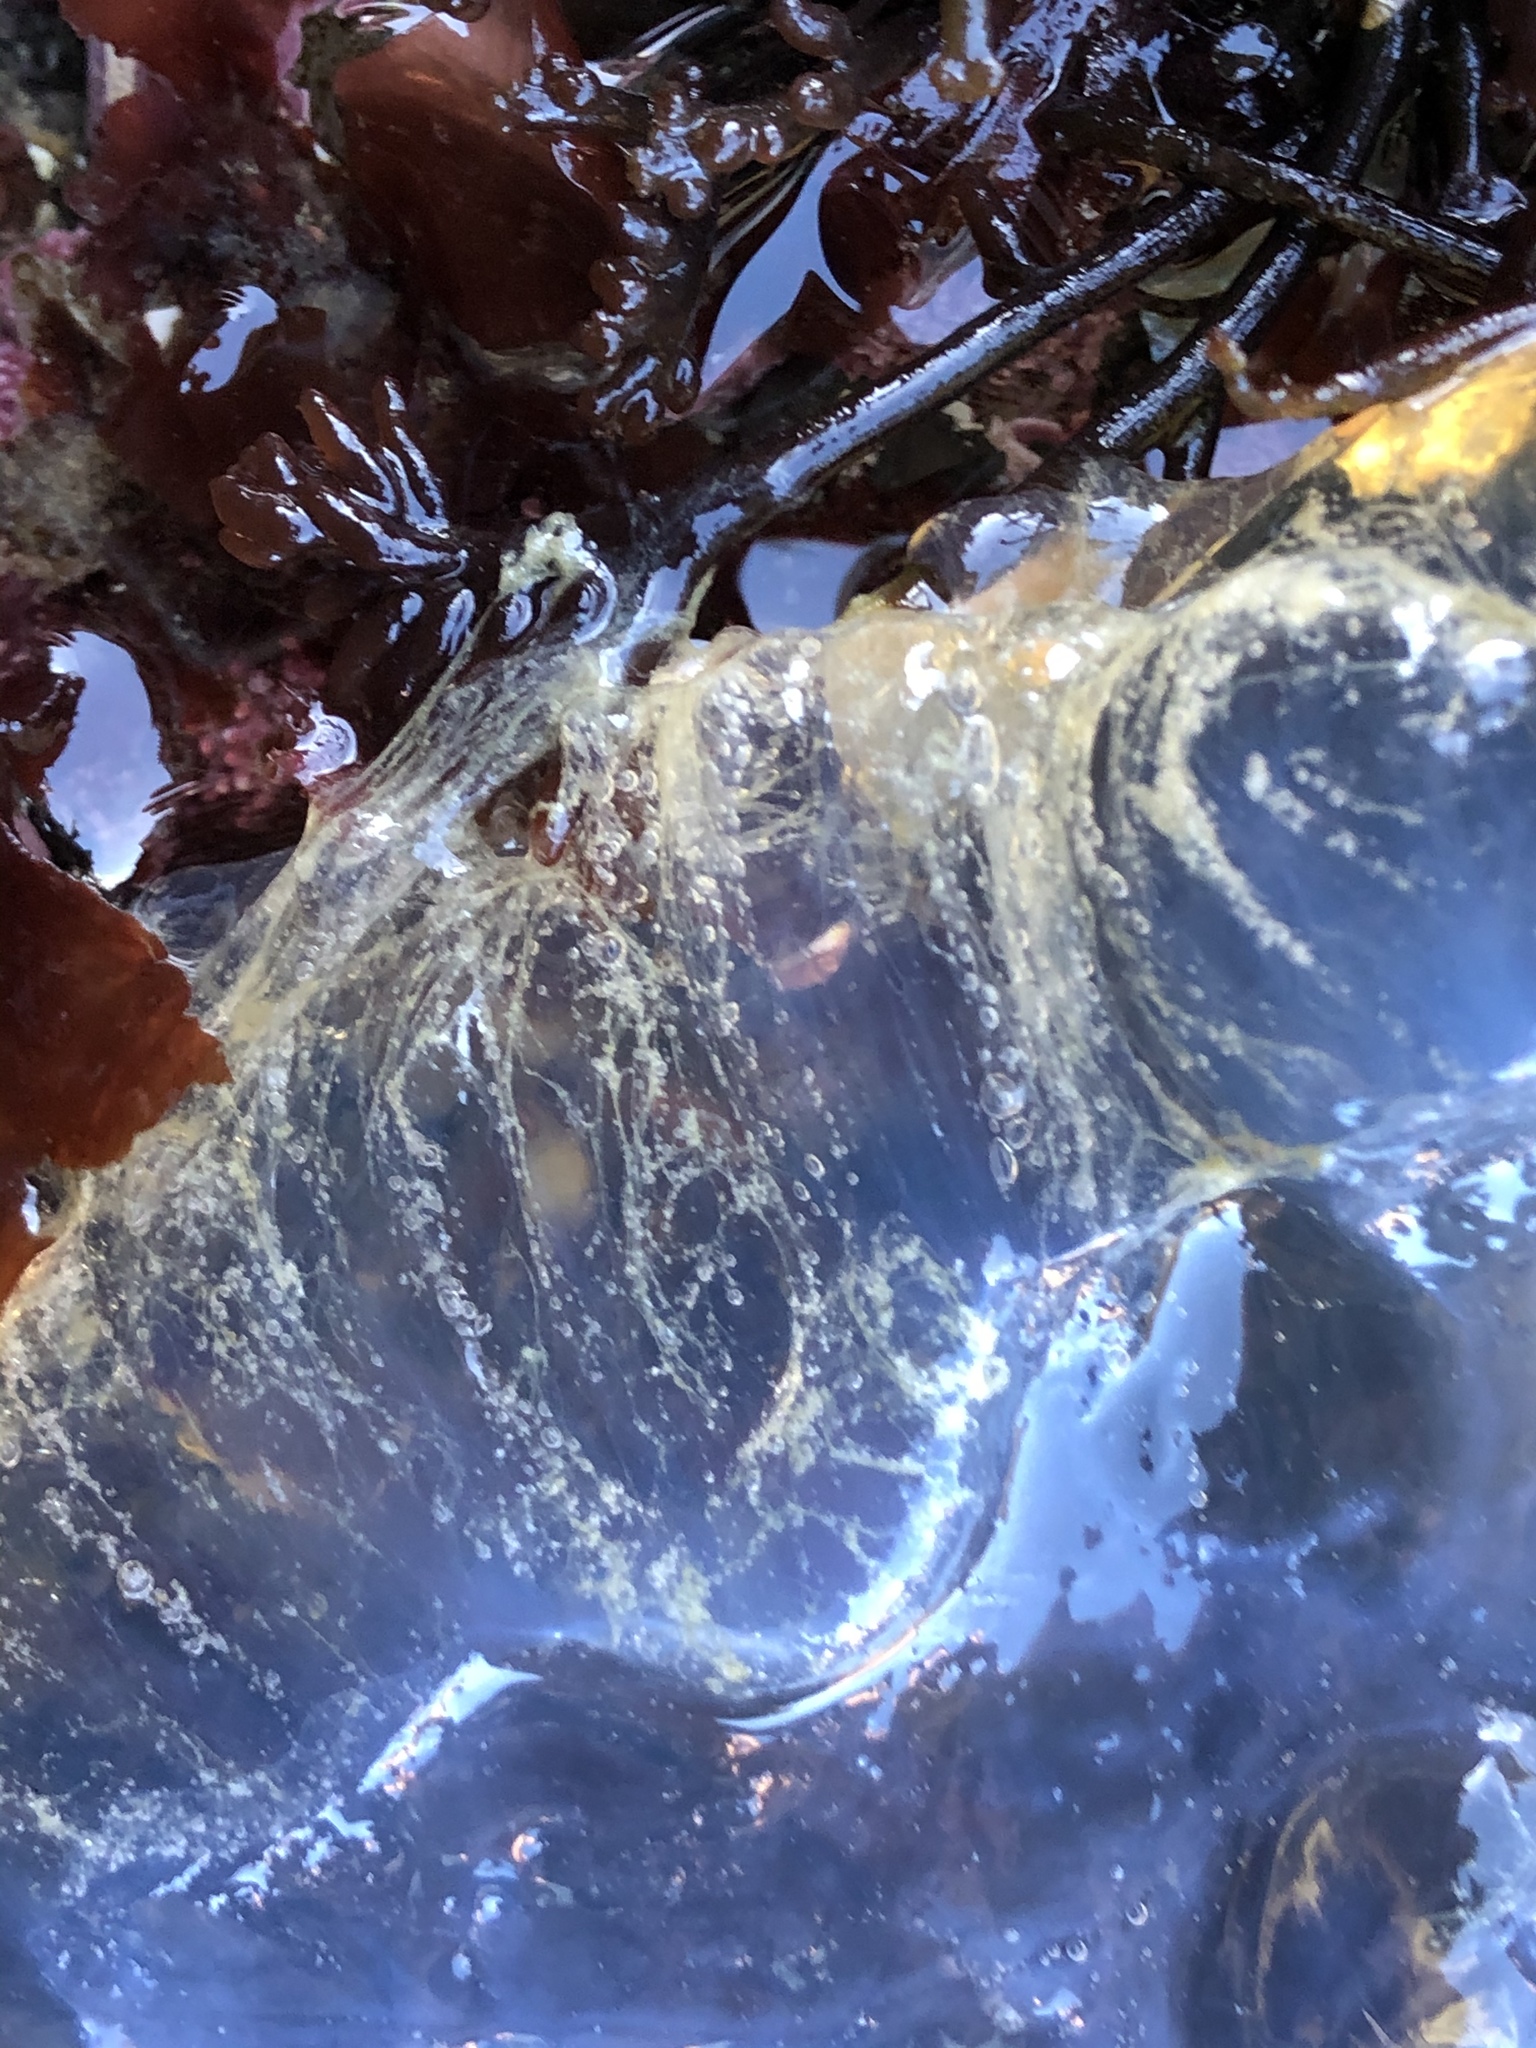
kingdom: Animalia
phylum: Cnidaria
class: Scyphozoa
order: Semaeostomeae
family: Pelagiidae
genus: Chrysaora
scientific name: Chrysaora fuscescens
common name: Sea nettle
